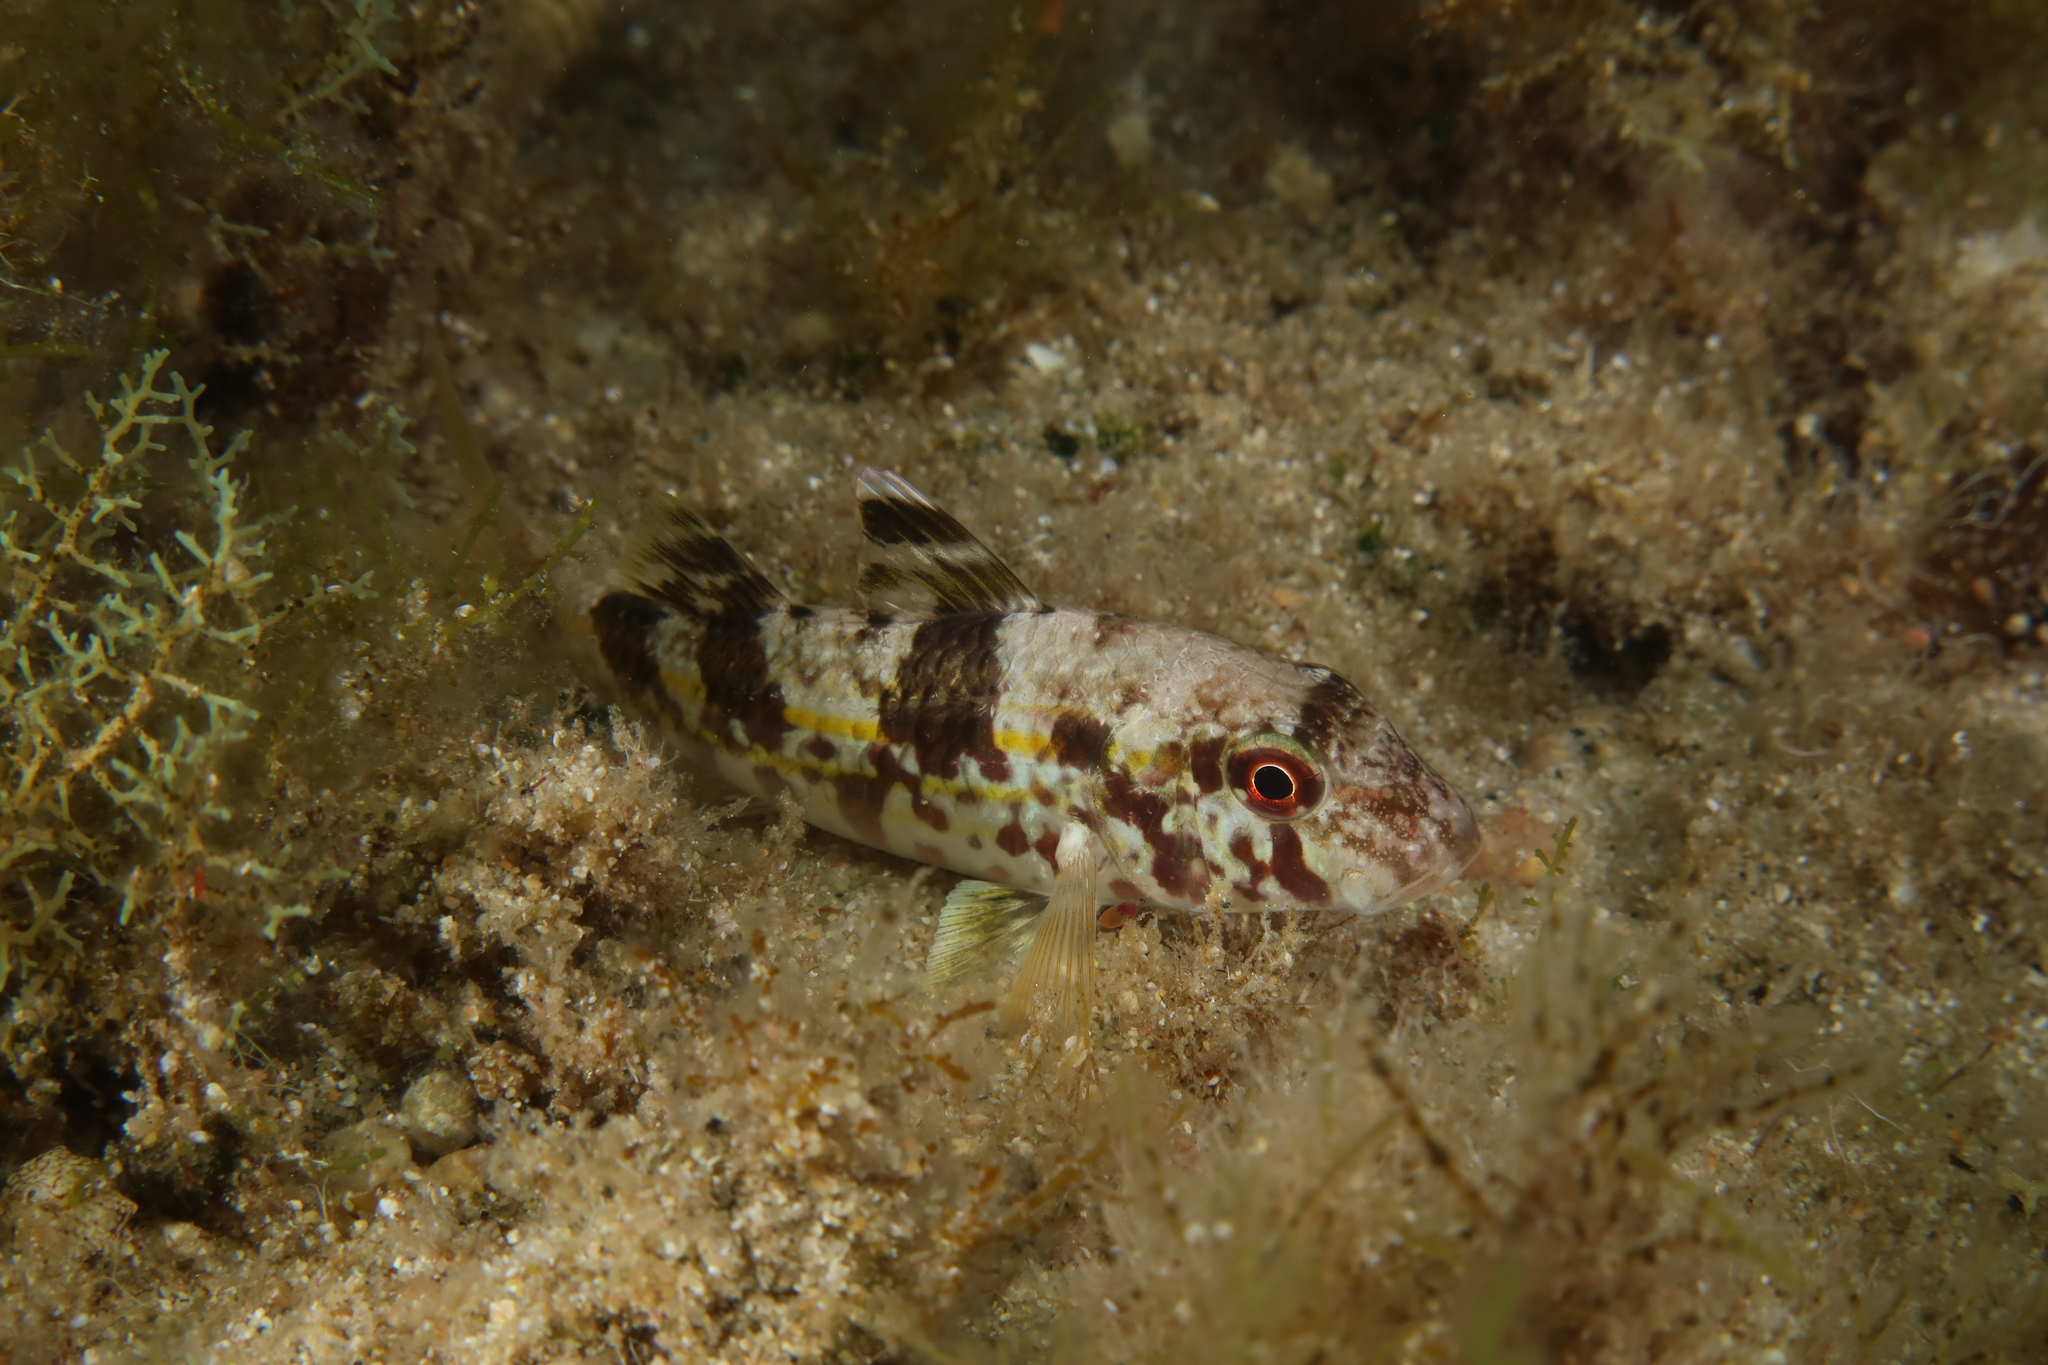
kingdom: Animalia
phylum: Chordata
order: Perciformes
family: Mullidae
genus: Mullus
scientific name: Mullus surmuletus
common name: Red mullet
